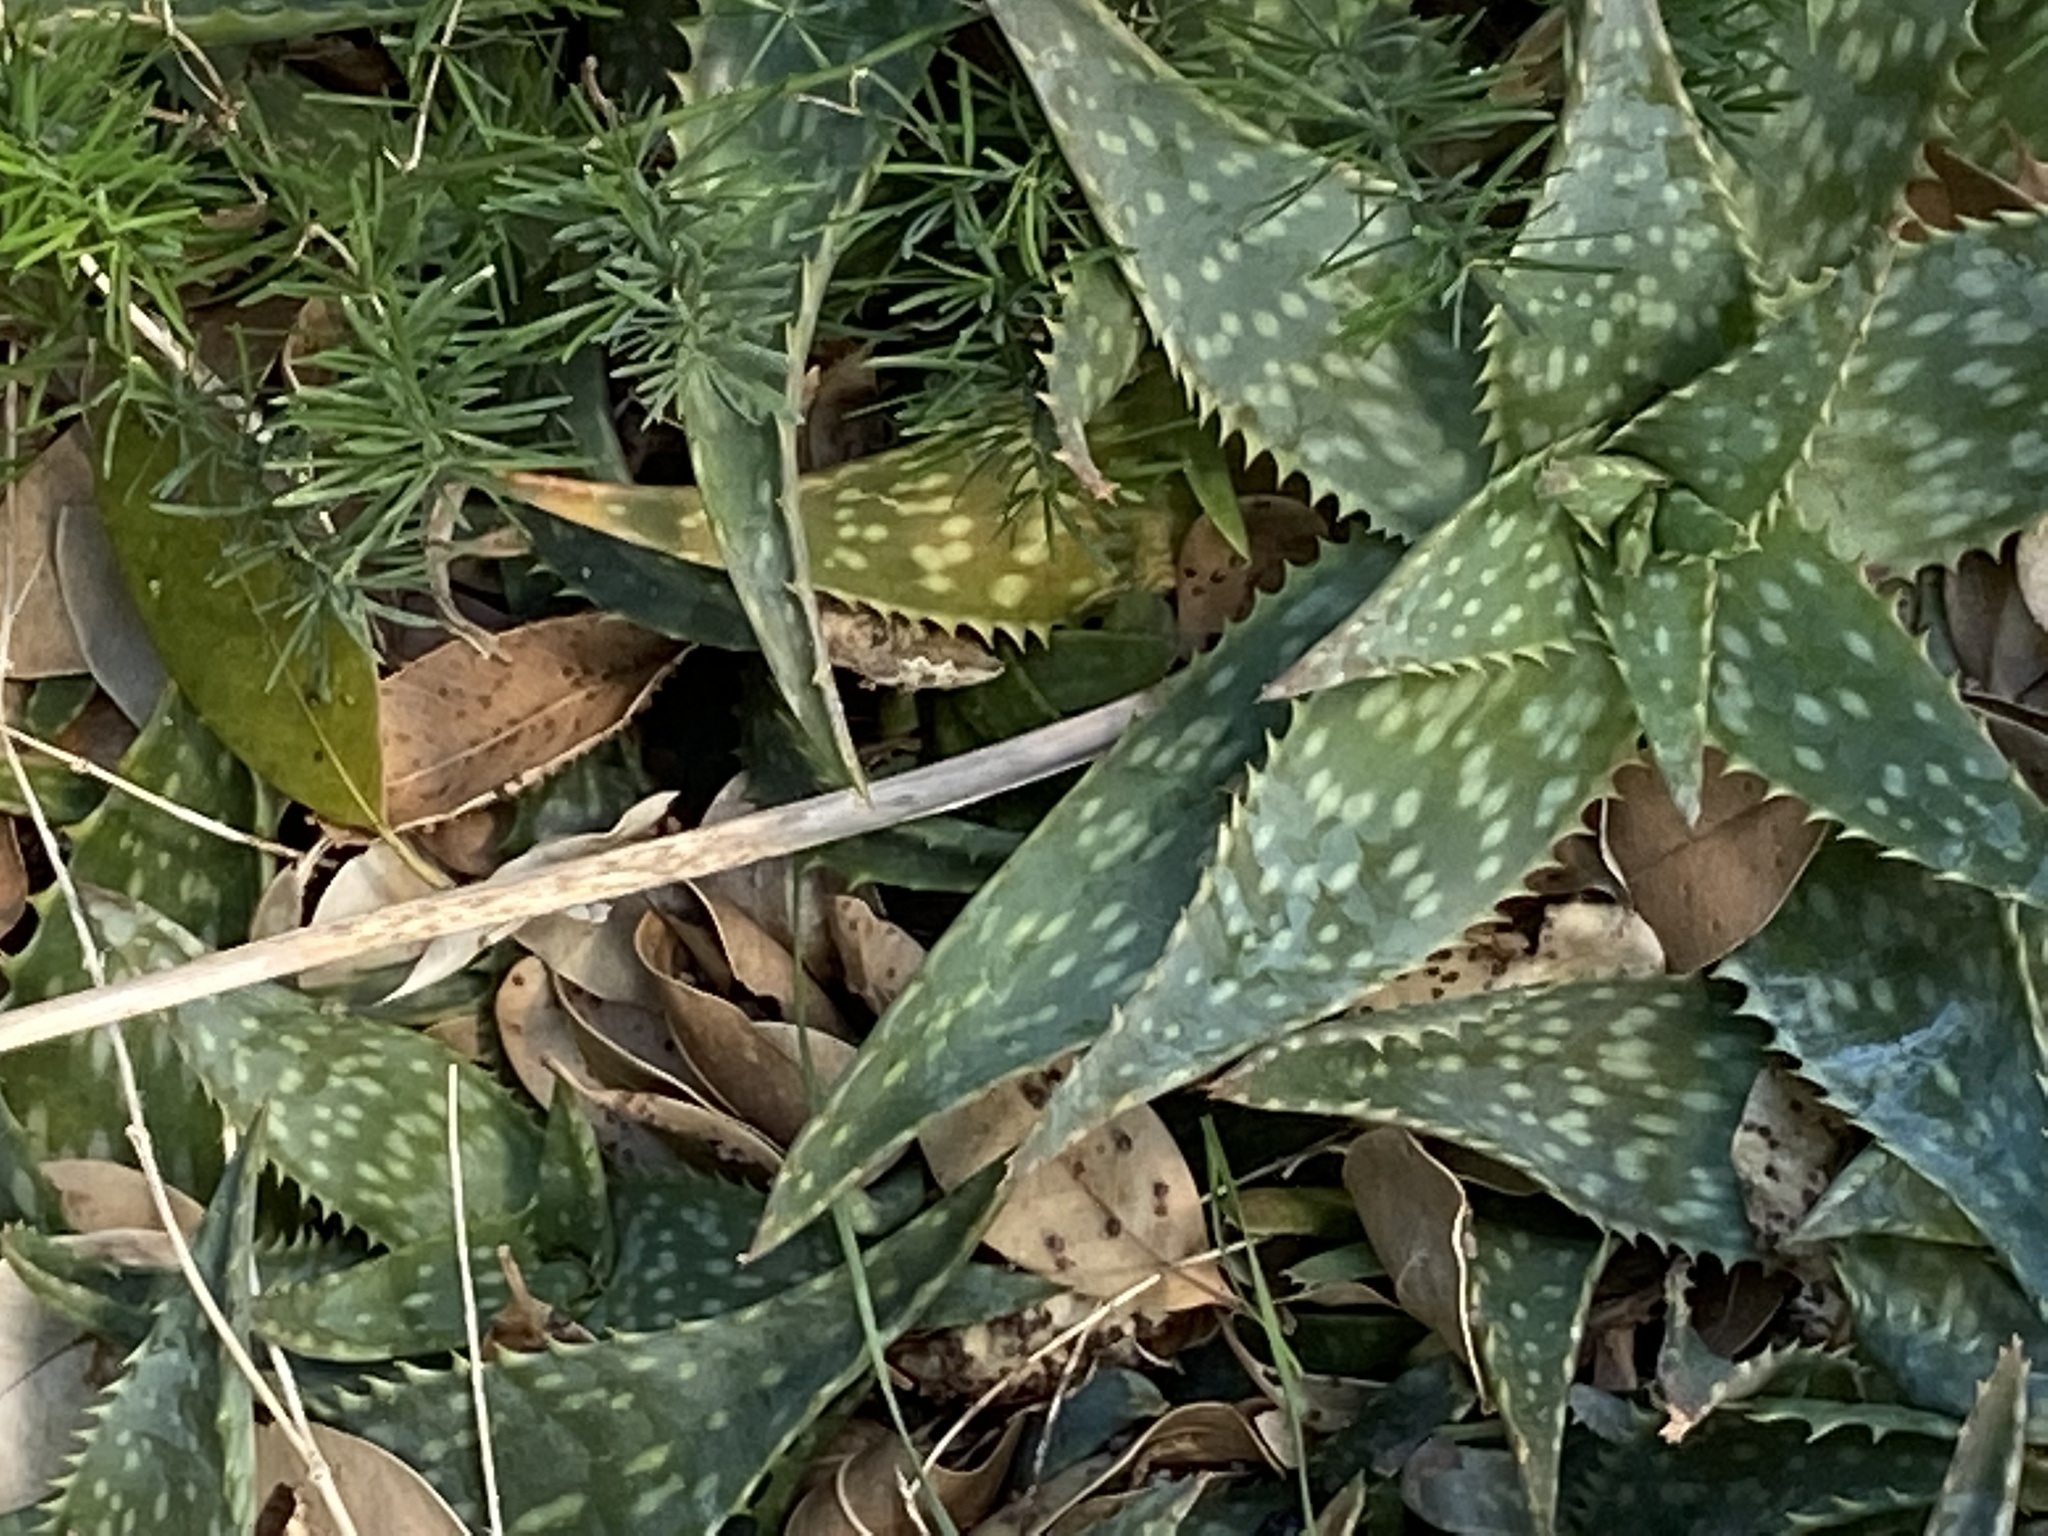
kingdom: Plantae
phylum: Tracheophyta
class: Liliopsida
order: Asparagales
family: Asphodelaceae
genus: Aloe
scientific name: Aloe maculata
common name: Broadleaf aloe
